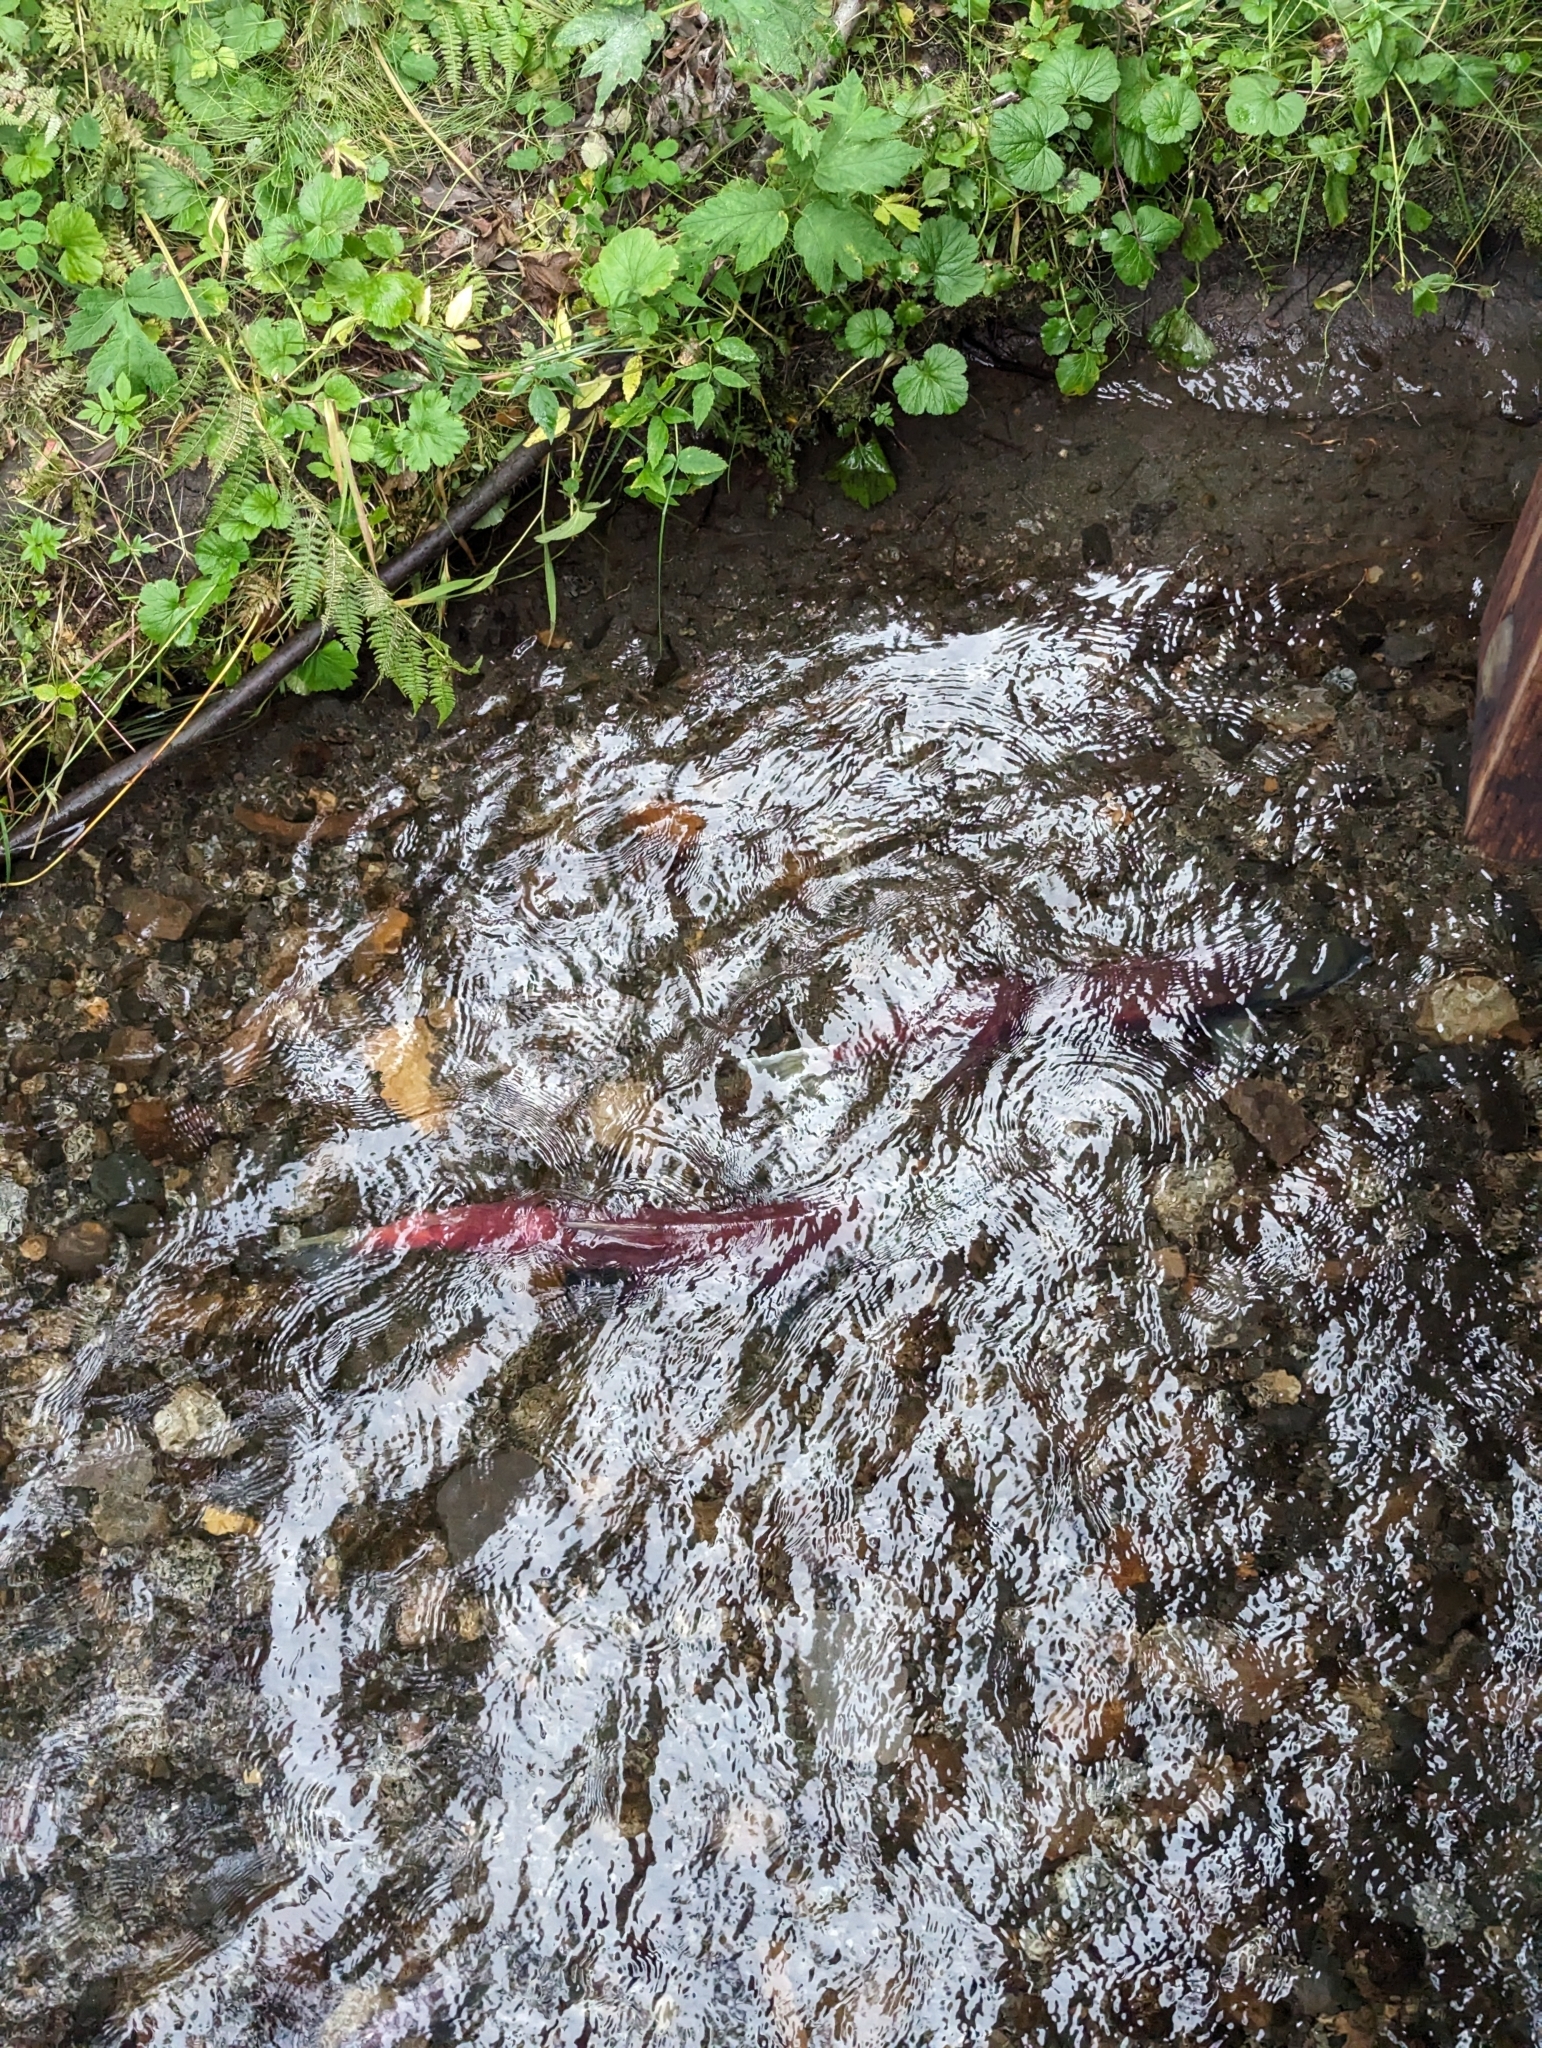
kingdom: Animalia
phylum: Chordata
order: Salmoniformes
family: Salmonidae
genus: Oncorhynchus
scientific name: Oncorhynchus nerka
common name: Sockeye salmon
